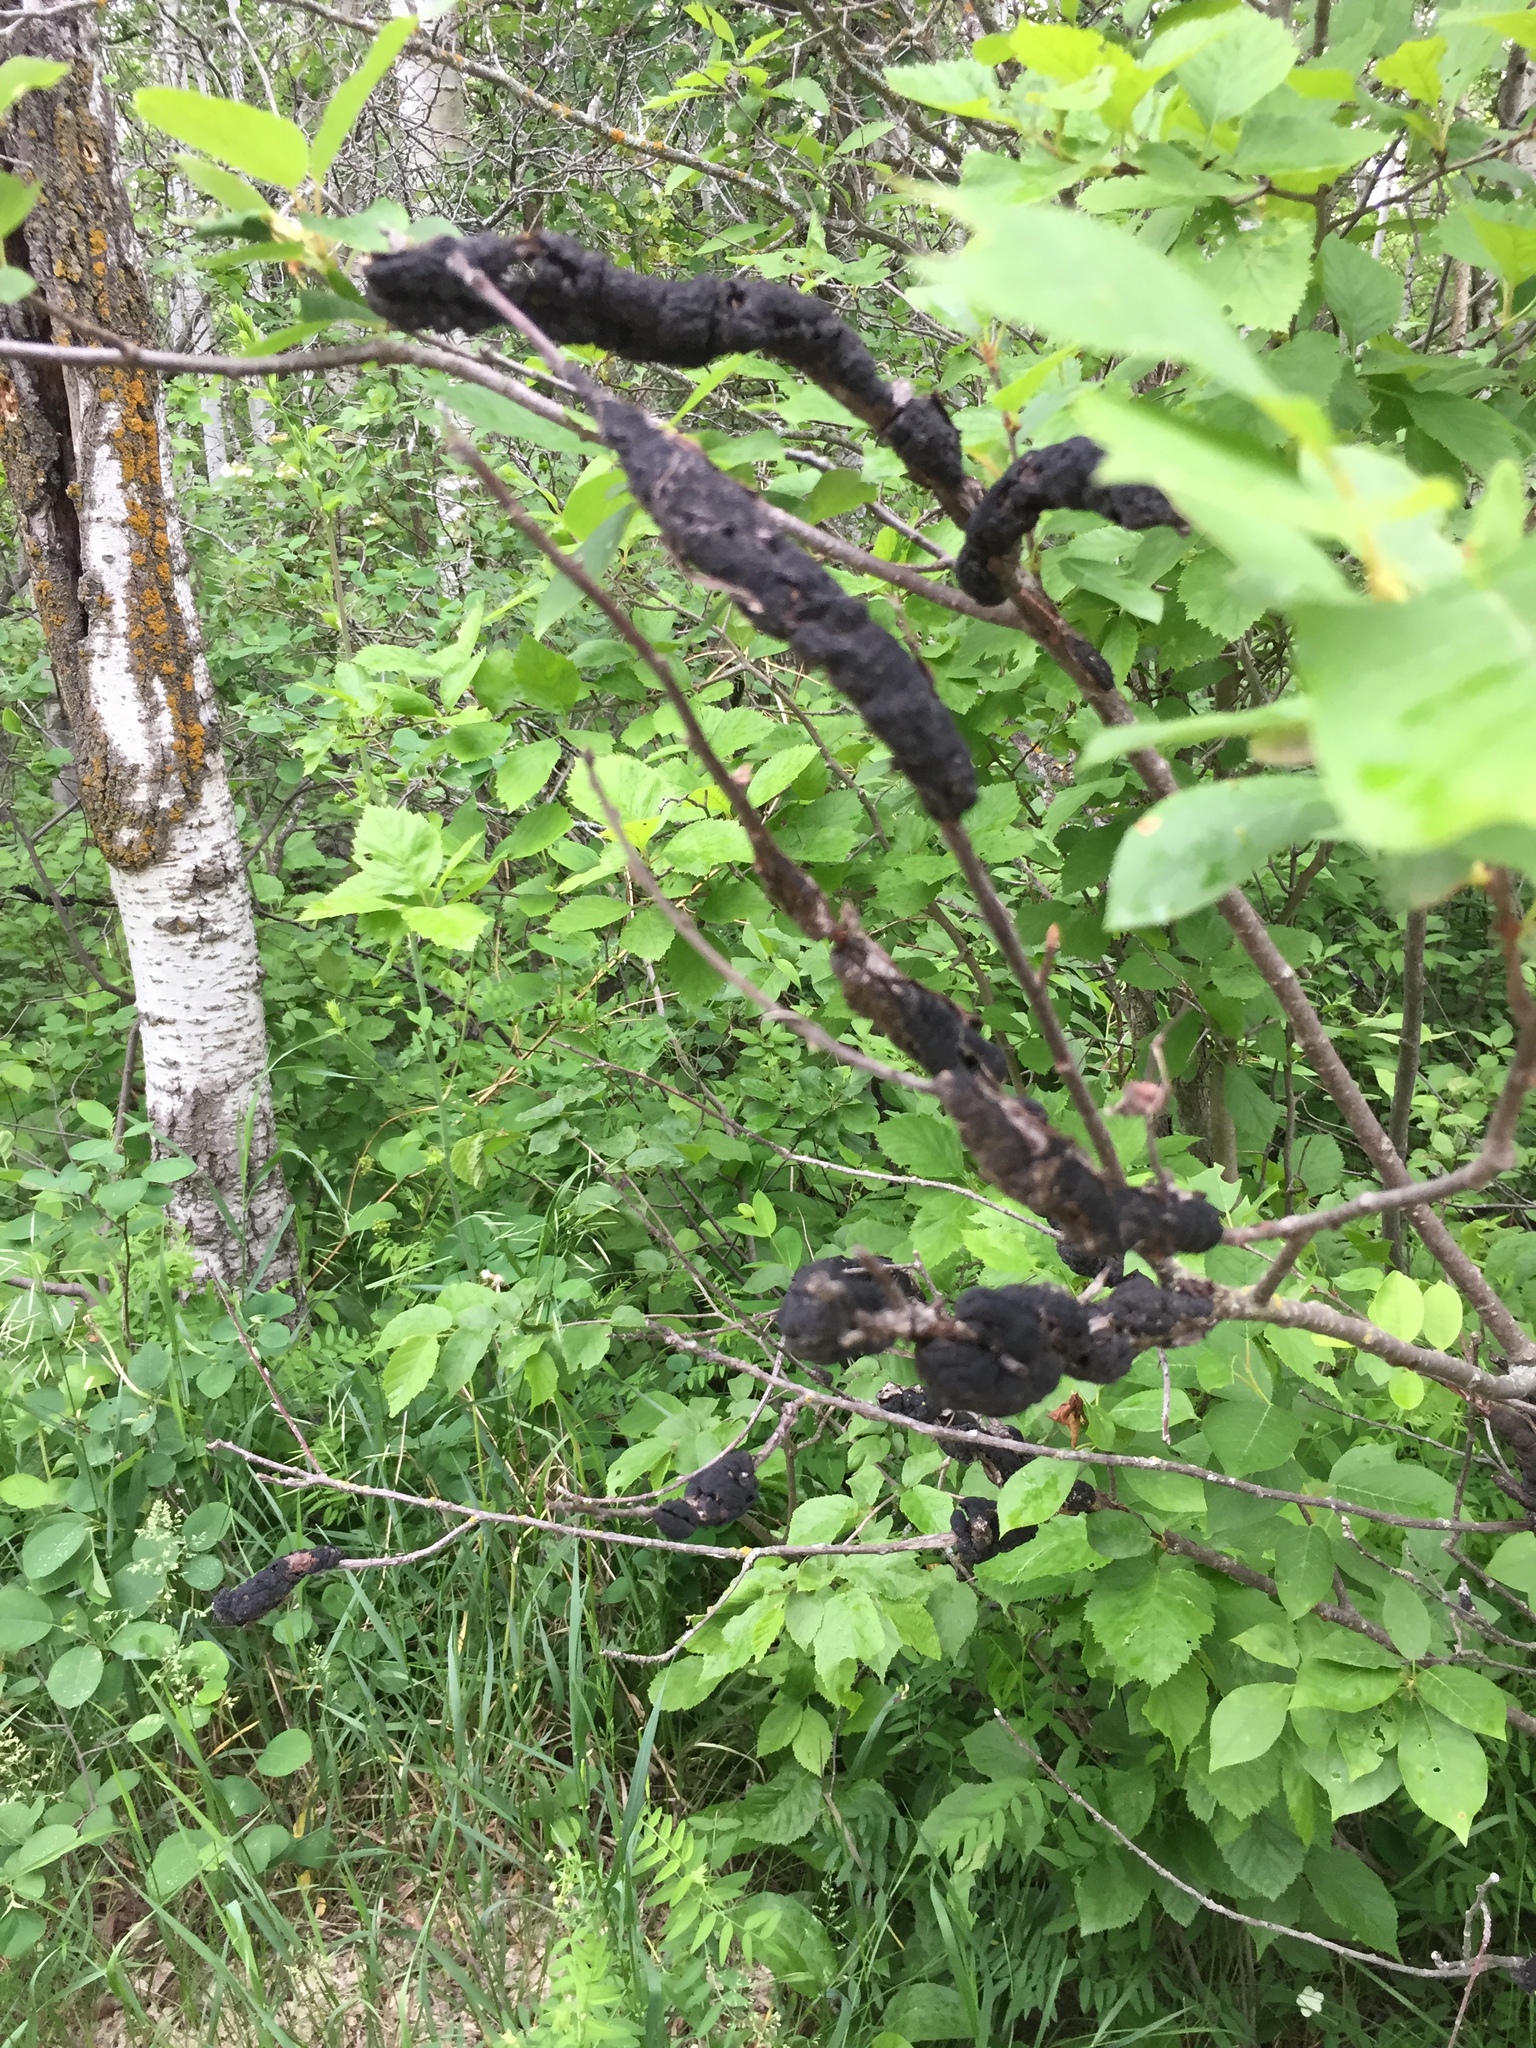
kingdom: Fungi
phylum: Ascomycota
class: Dothideomycetes
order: Venturiales
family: Venturiaceae
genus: Apiosporina
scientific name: Apiosporina morbosa
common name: Black knot
